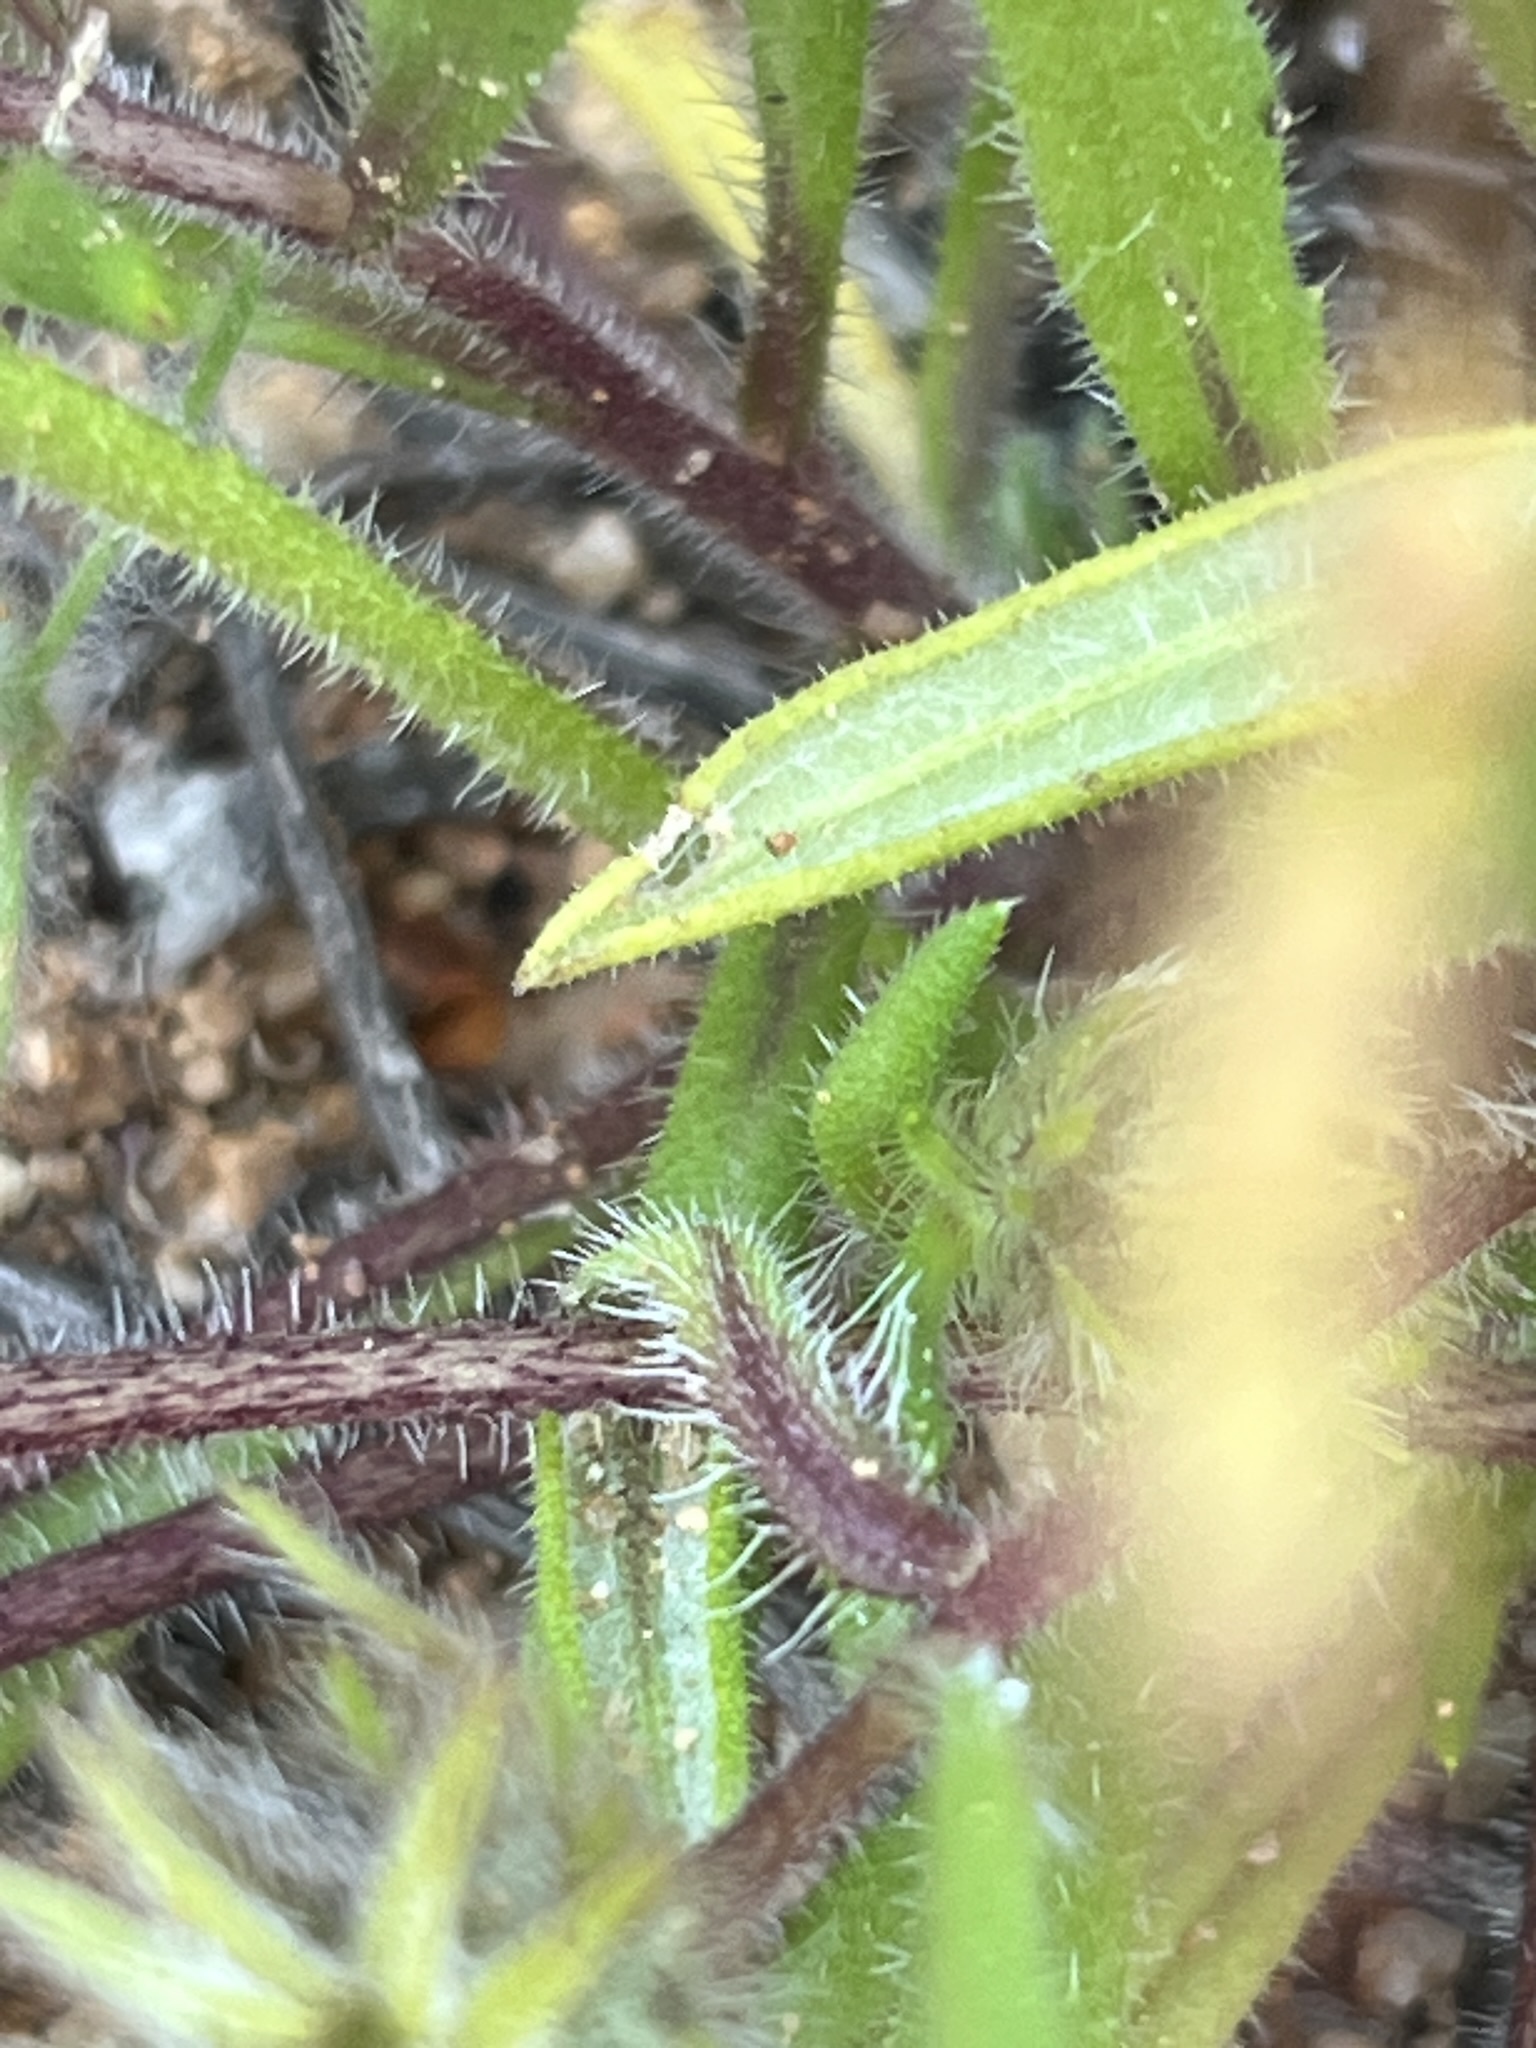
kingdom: Plantae
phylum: Tracheophyta
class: Magnoliopsida
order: Asterales
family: Asteraceae
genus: Gorteria
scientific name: Gorteria diffusa
